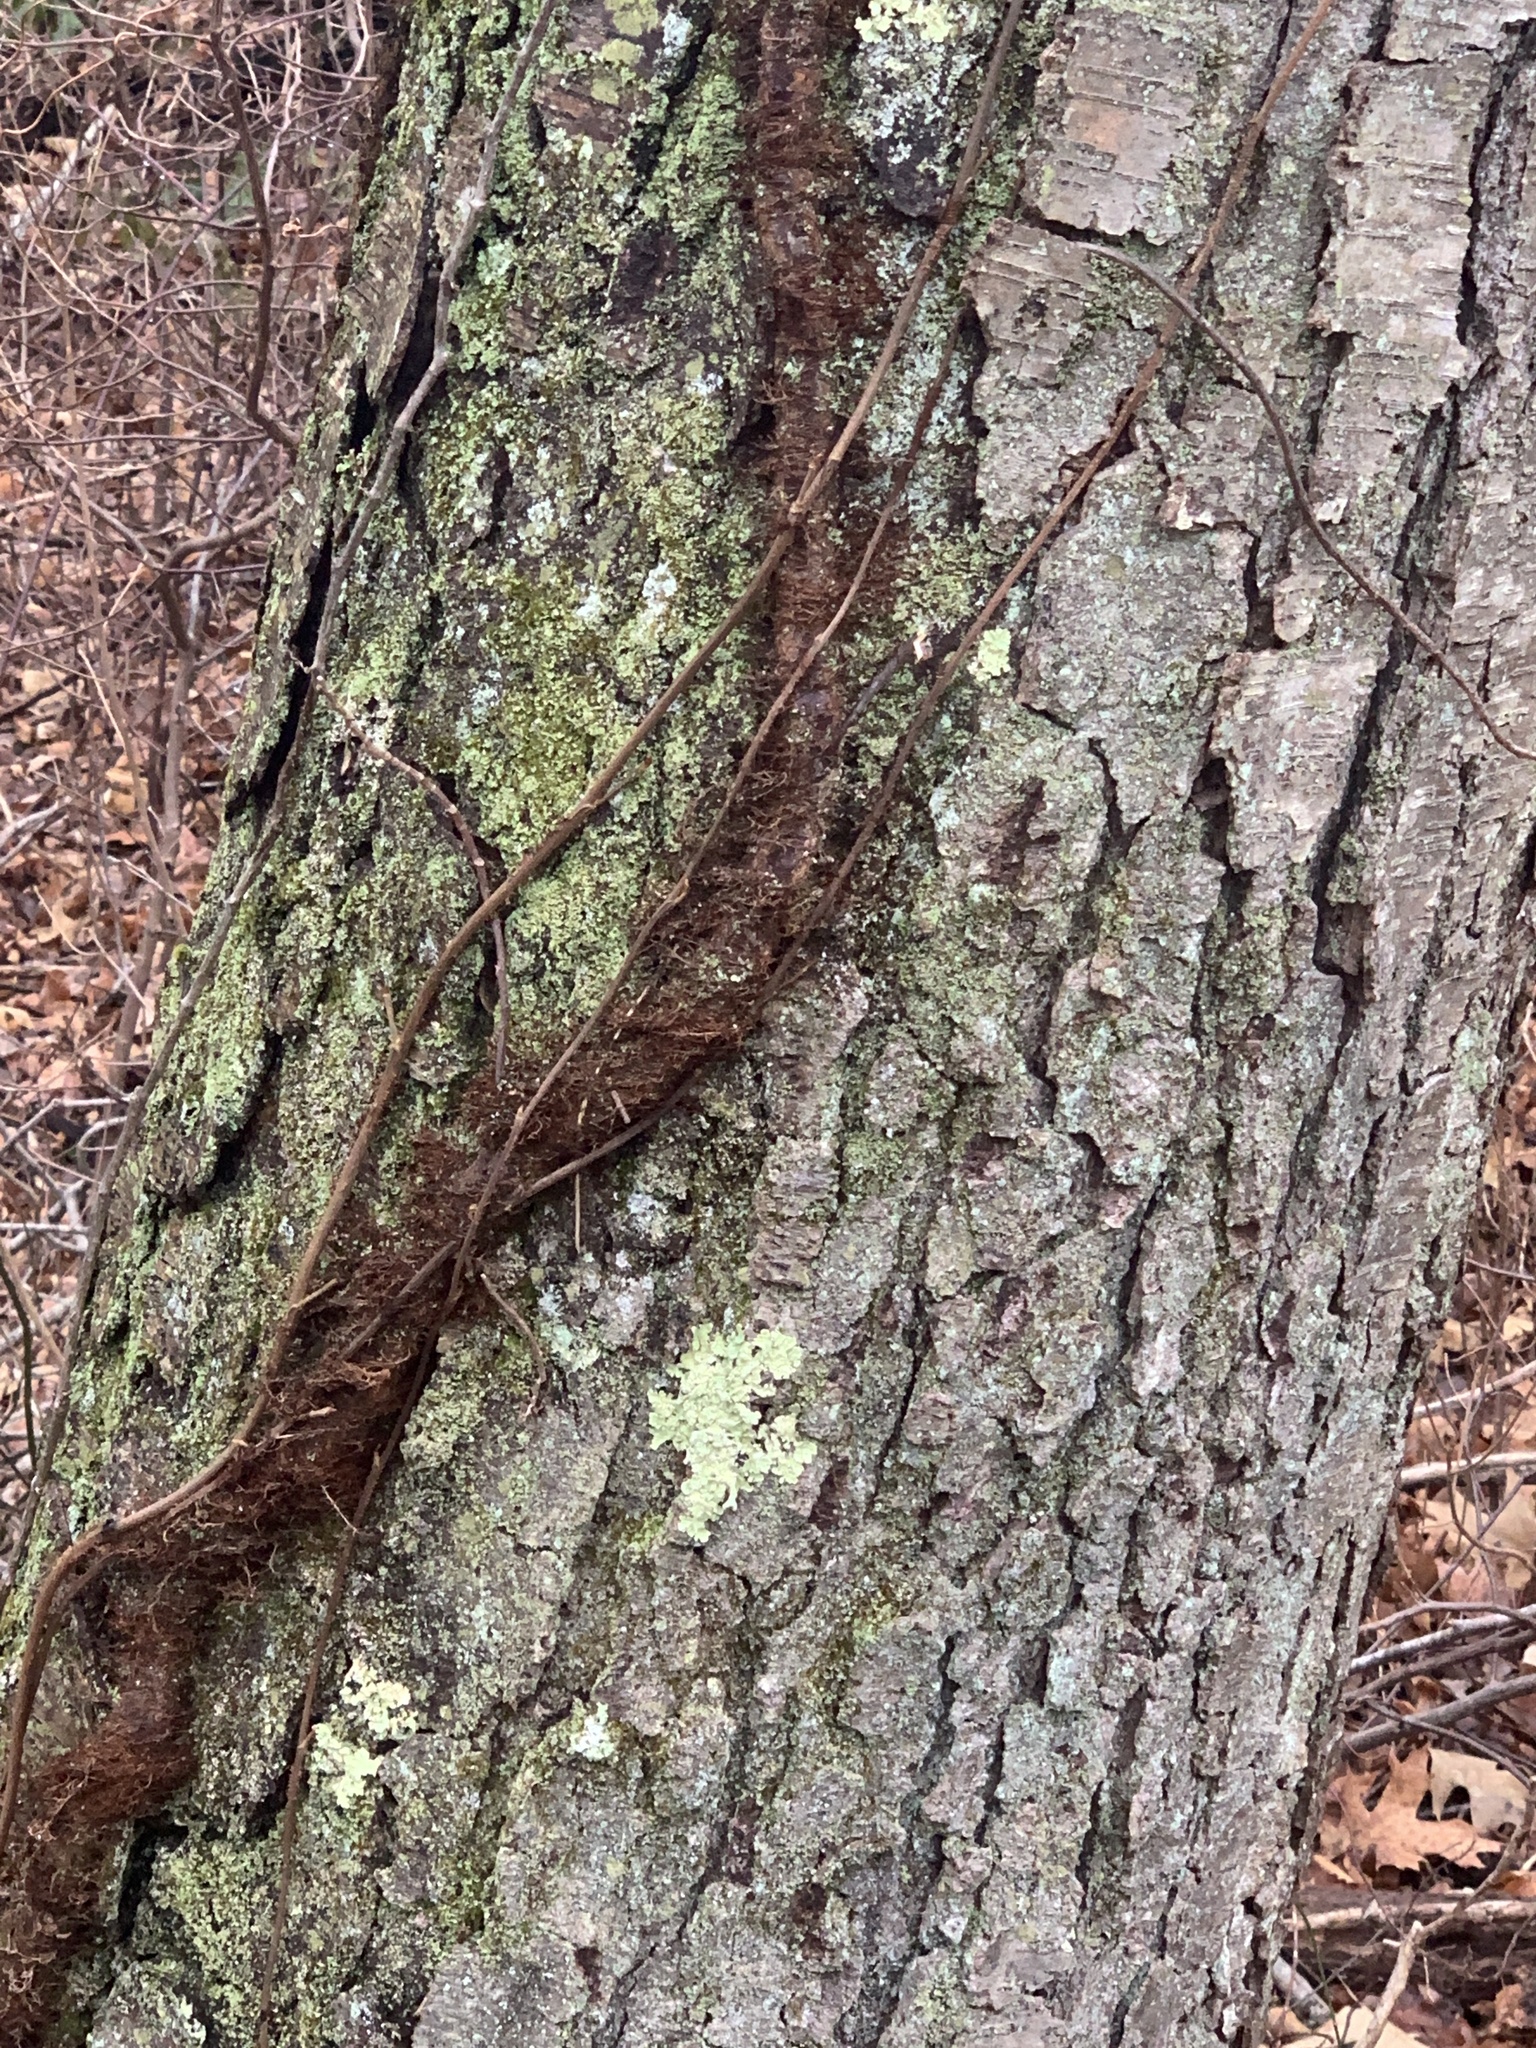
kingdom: Plantae
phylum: Tracheophyta
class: Magnoliopsida
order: Sapindales
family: Anacardiaceae
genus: Toxicodendron
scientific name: Toxicodendron radicans
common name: Poison ivy
